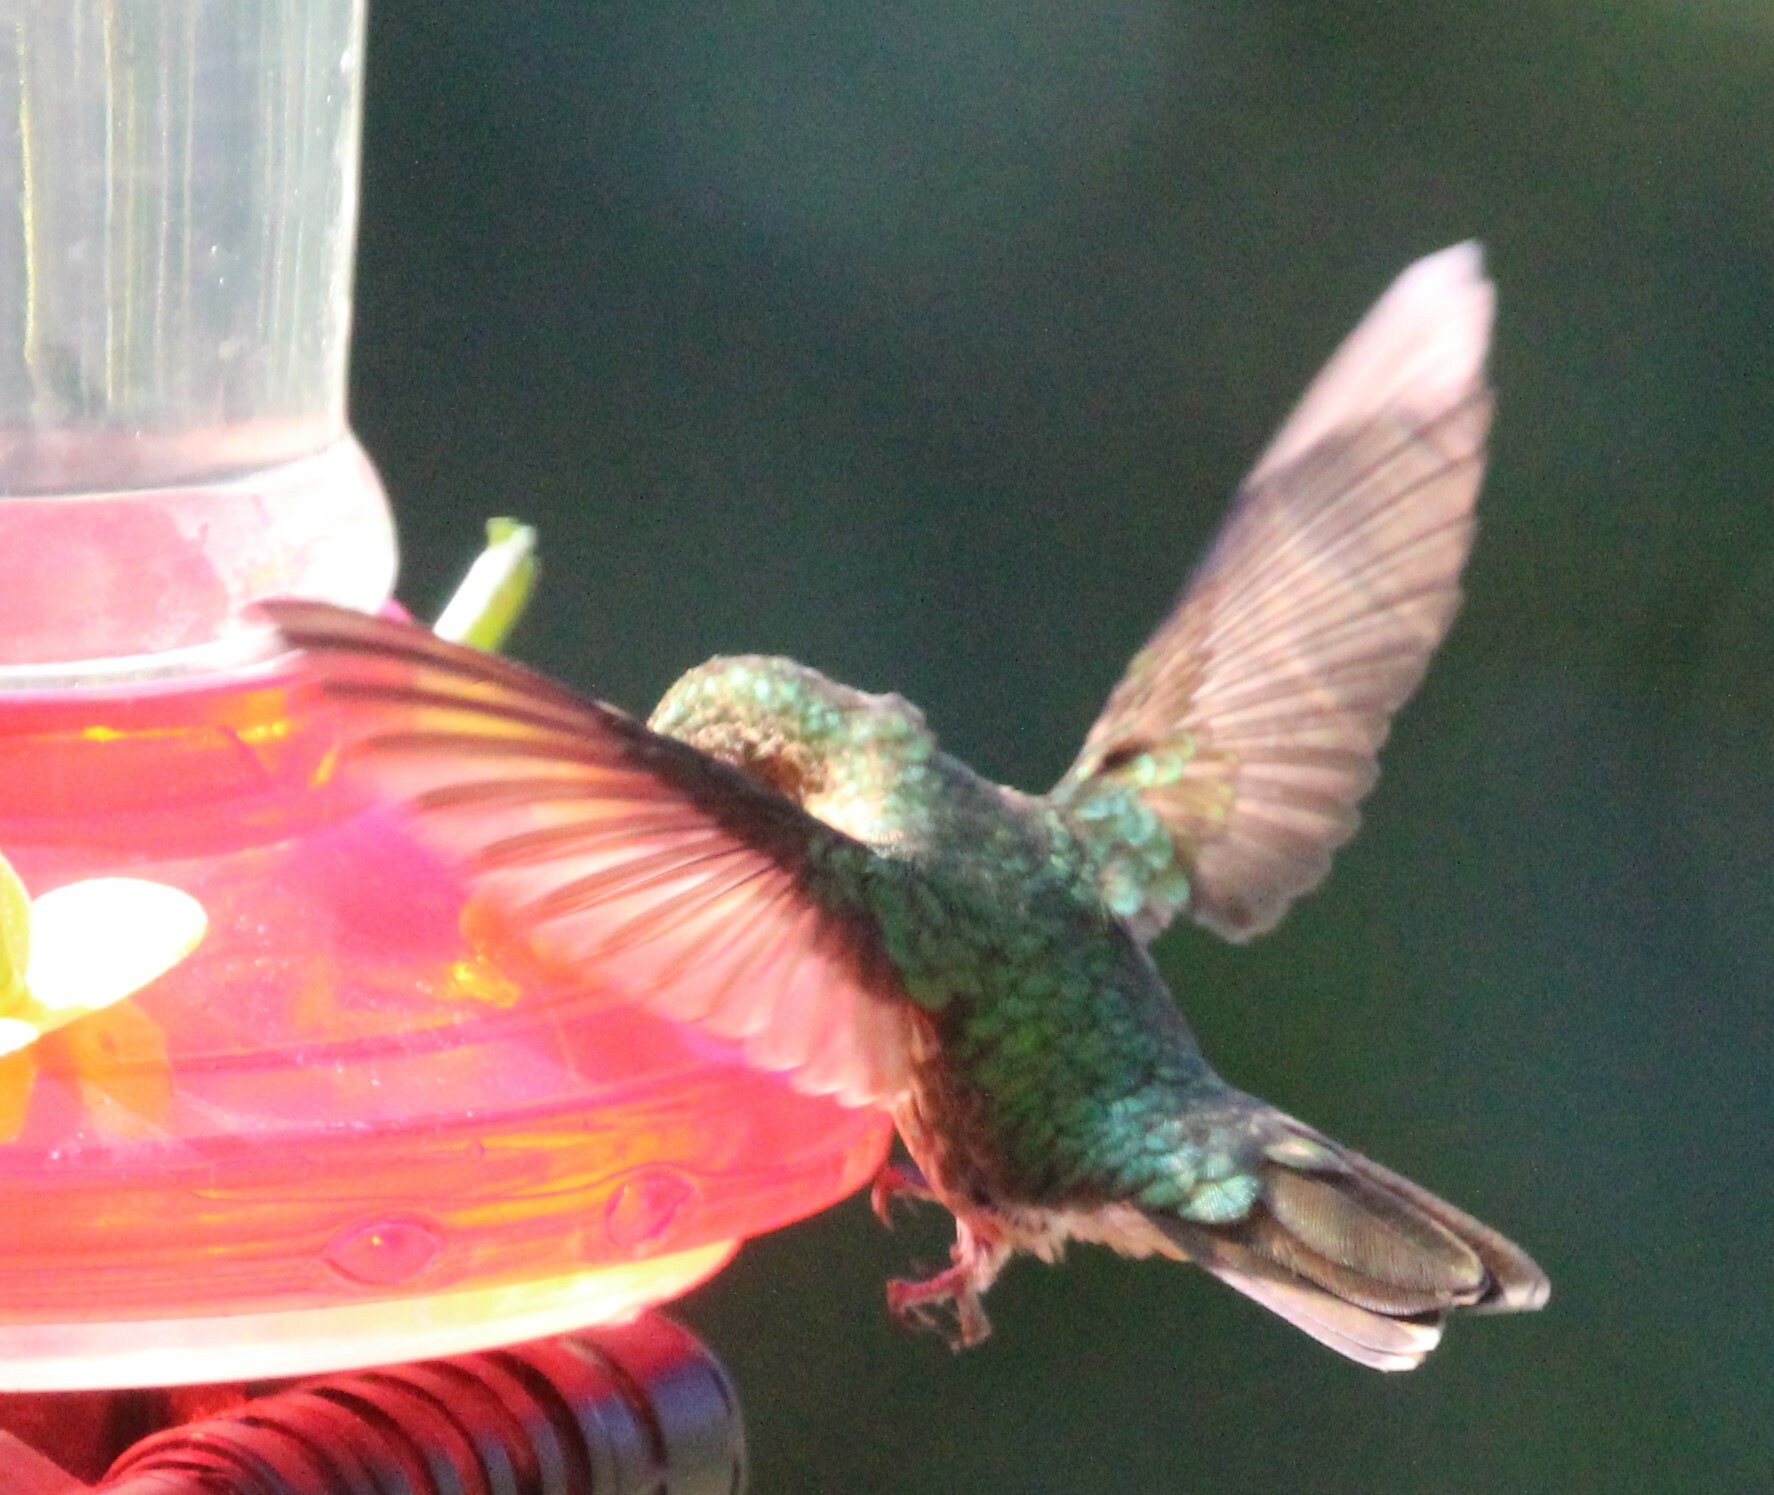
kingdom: Animalia
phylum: Chordata
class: Aves
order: Apodiformes
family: Trochilidae
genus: Boissonneaua
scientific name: Boissonneaua flavescens
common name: Buff-tailed coronet
